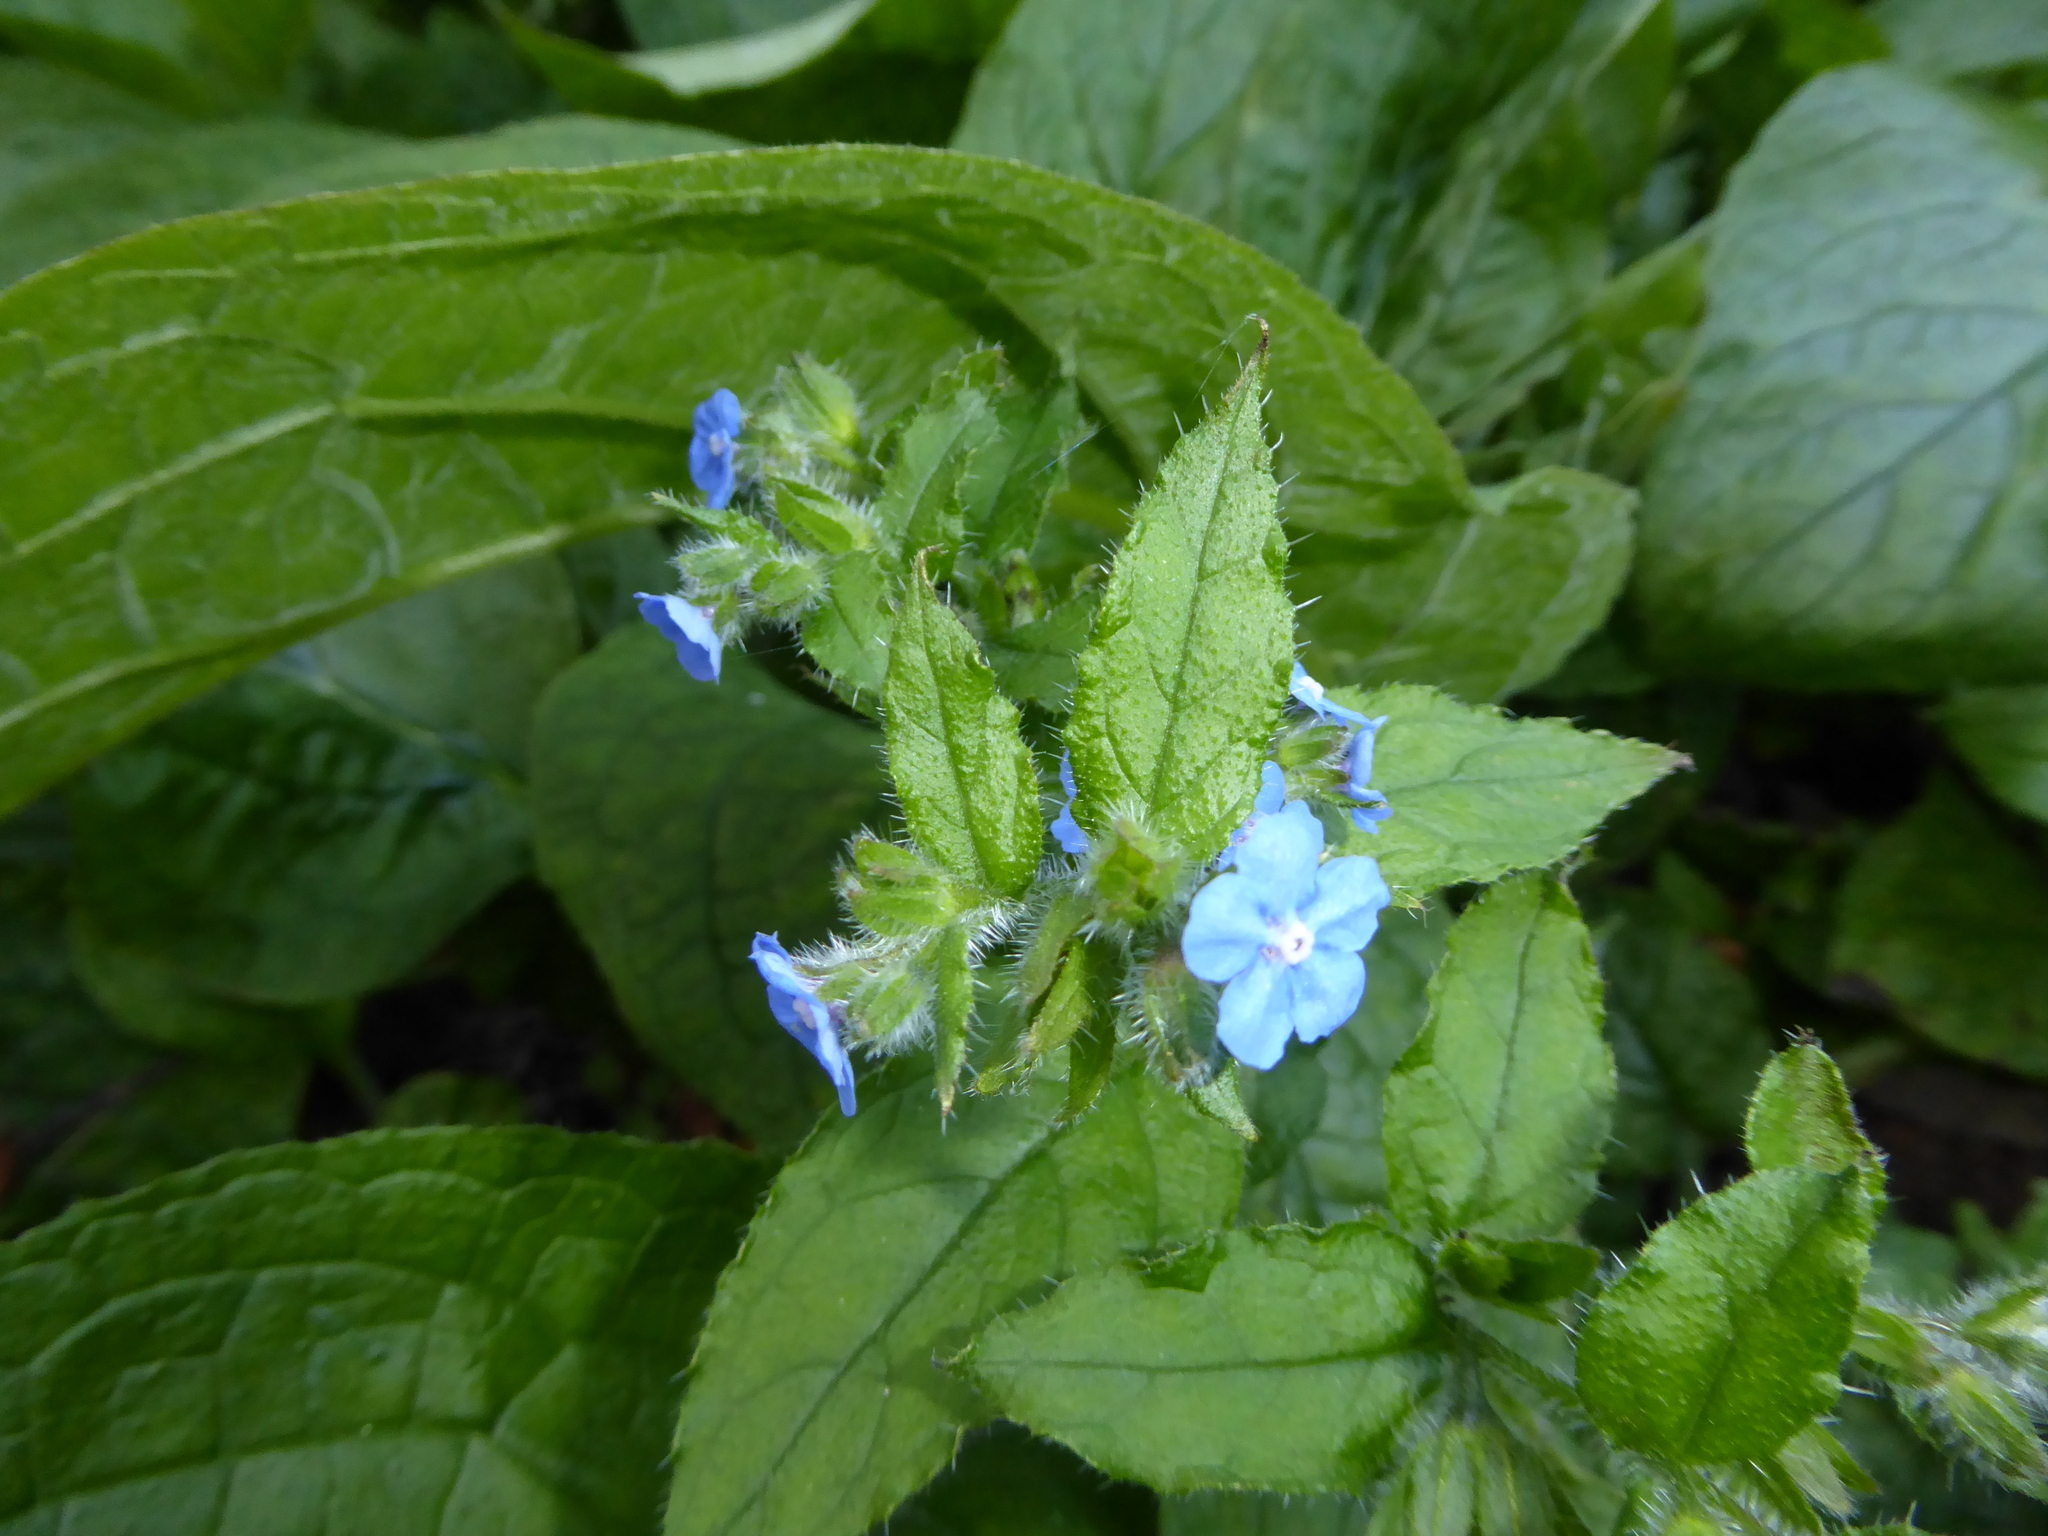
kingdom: Plantae
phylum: Tracheophyta
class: Magnoliopsida
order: Boraginales
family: Boraginaceae
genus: Pentaglottis
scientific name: Pentaglottis sempervirens
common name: Green alkanet
